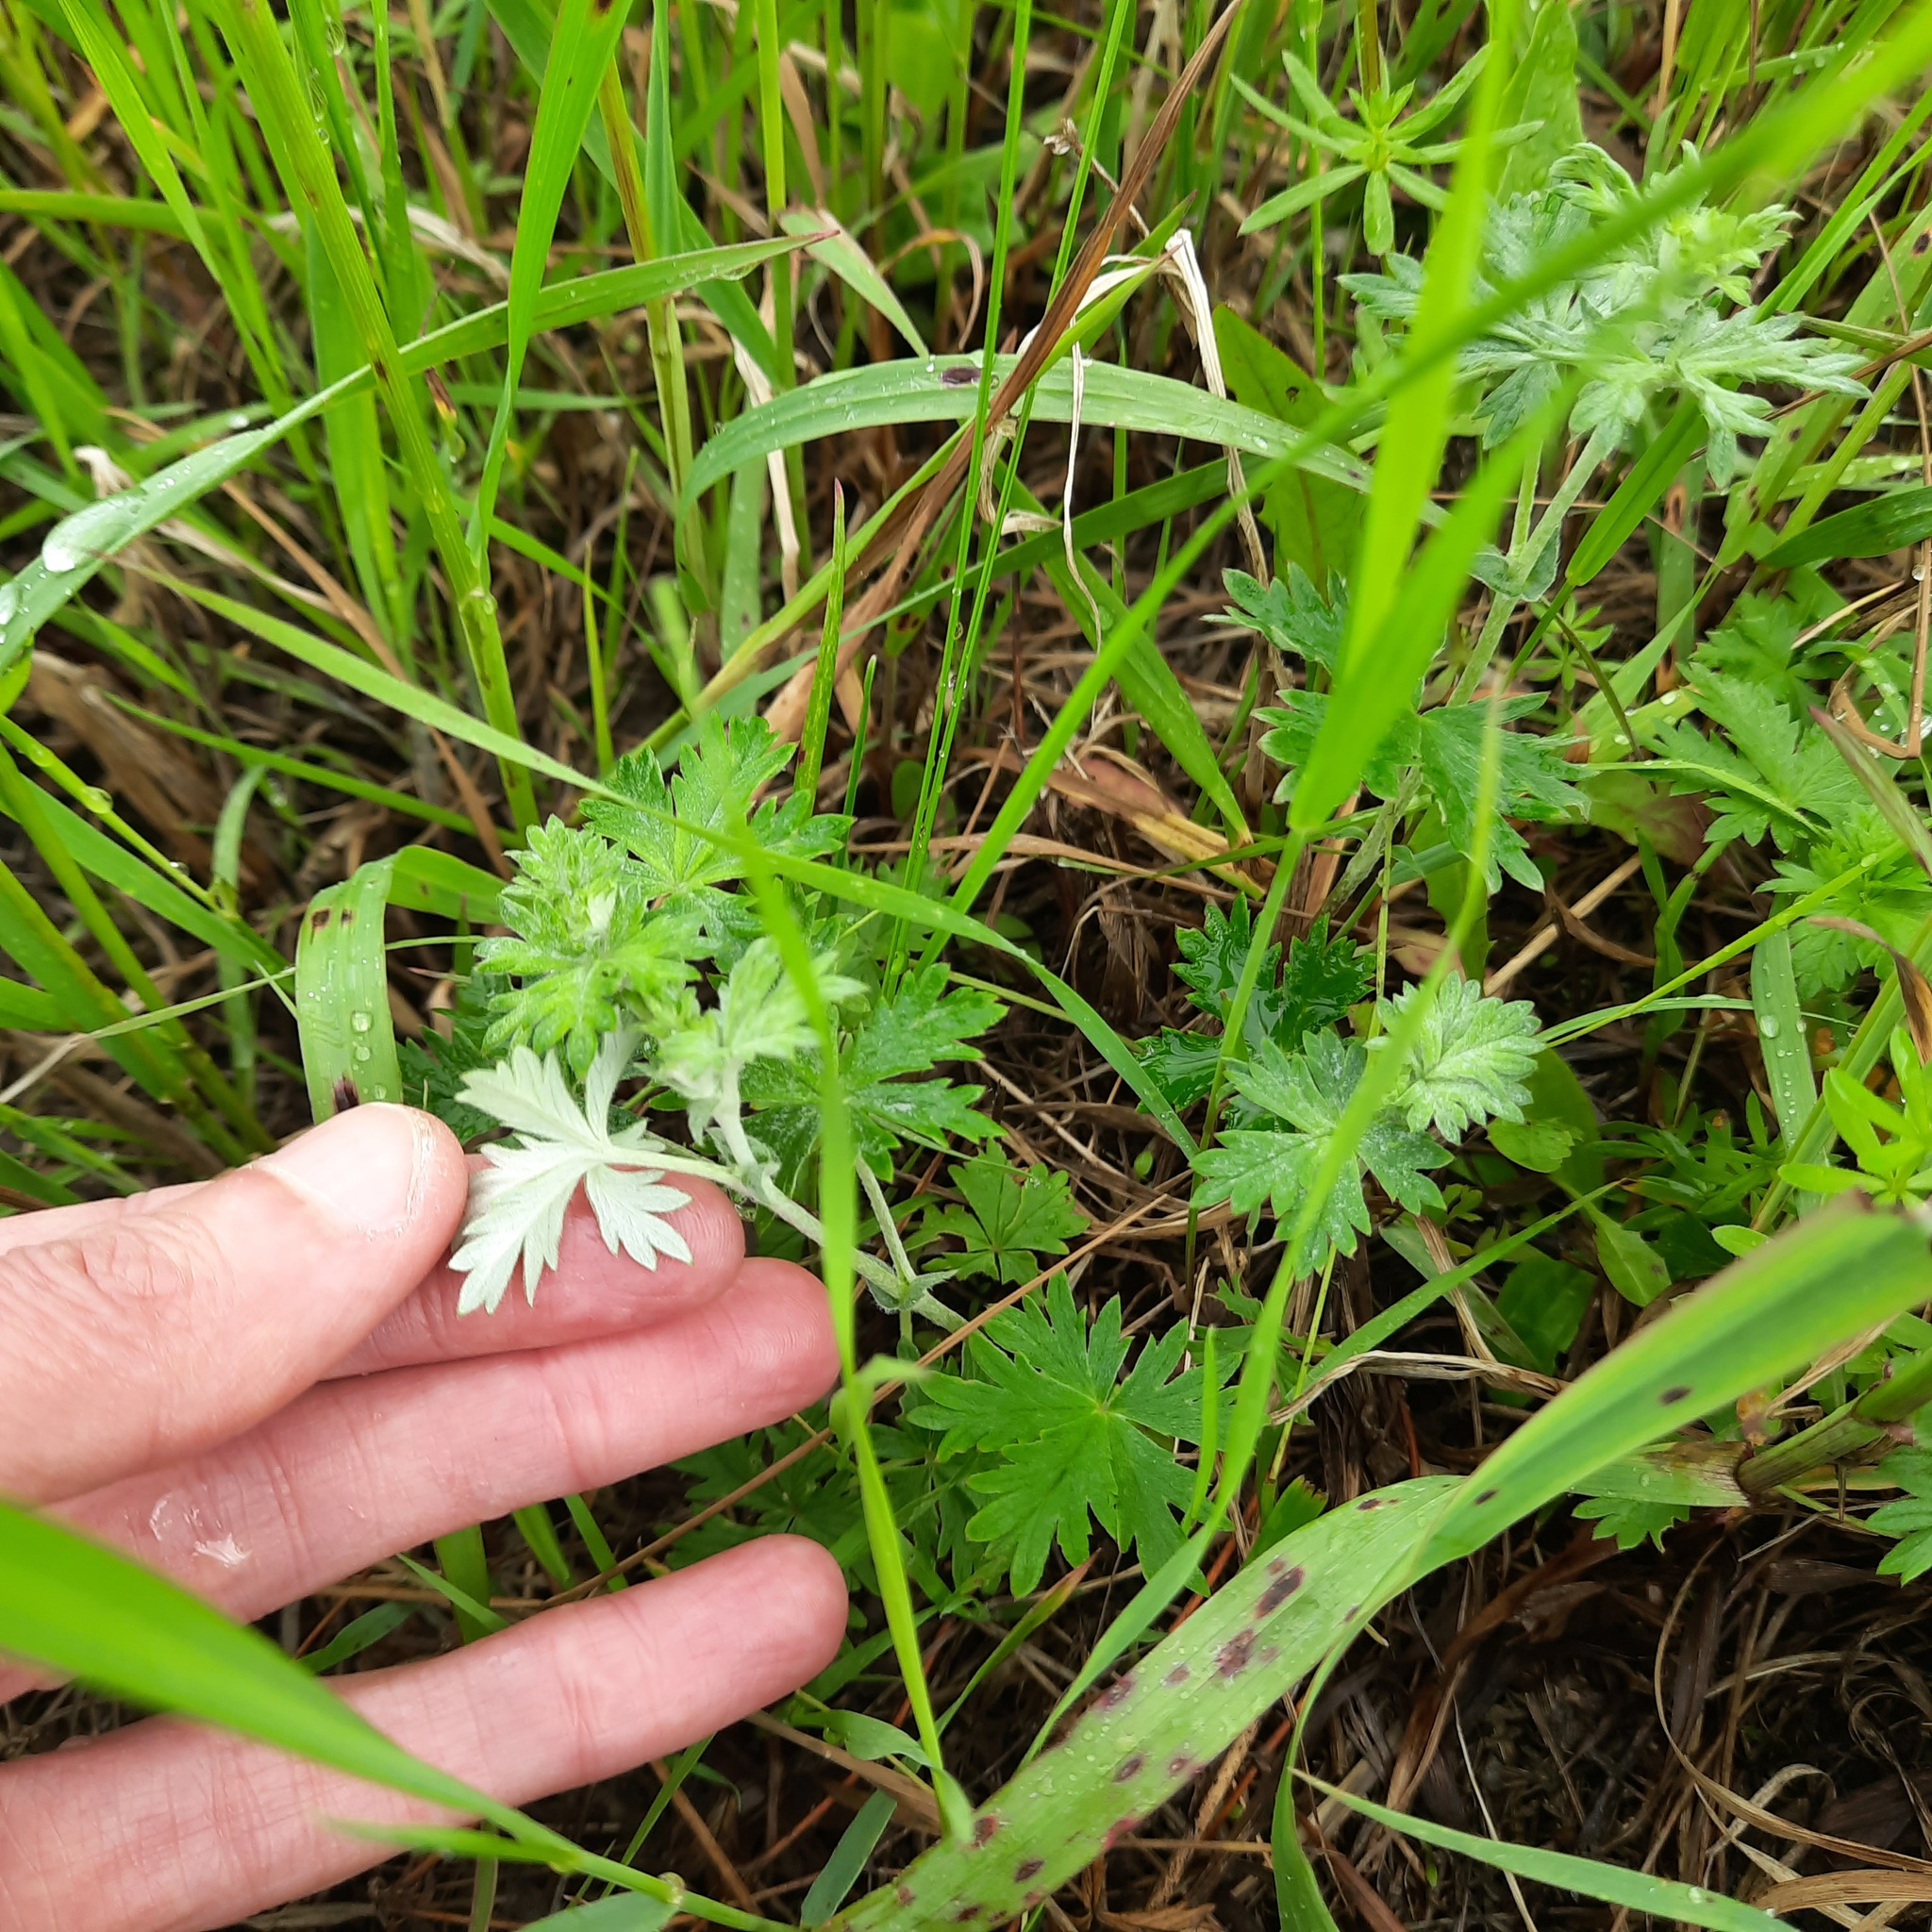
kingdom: Plantae
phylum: Tracheophyta
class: Magnoliopsida
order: Rosales
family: Rosaceae
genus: Potentilla
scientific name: Potentilla argentea
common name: Hoary cinquefoil
